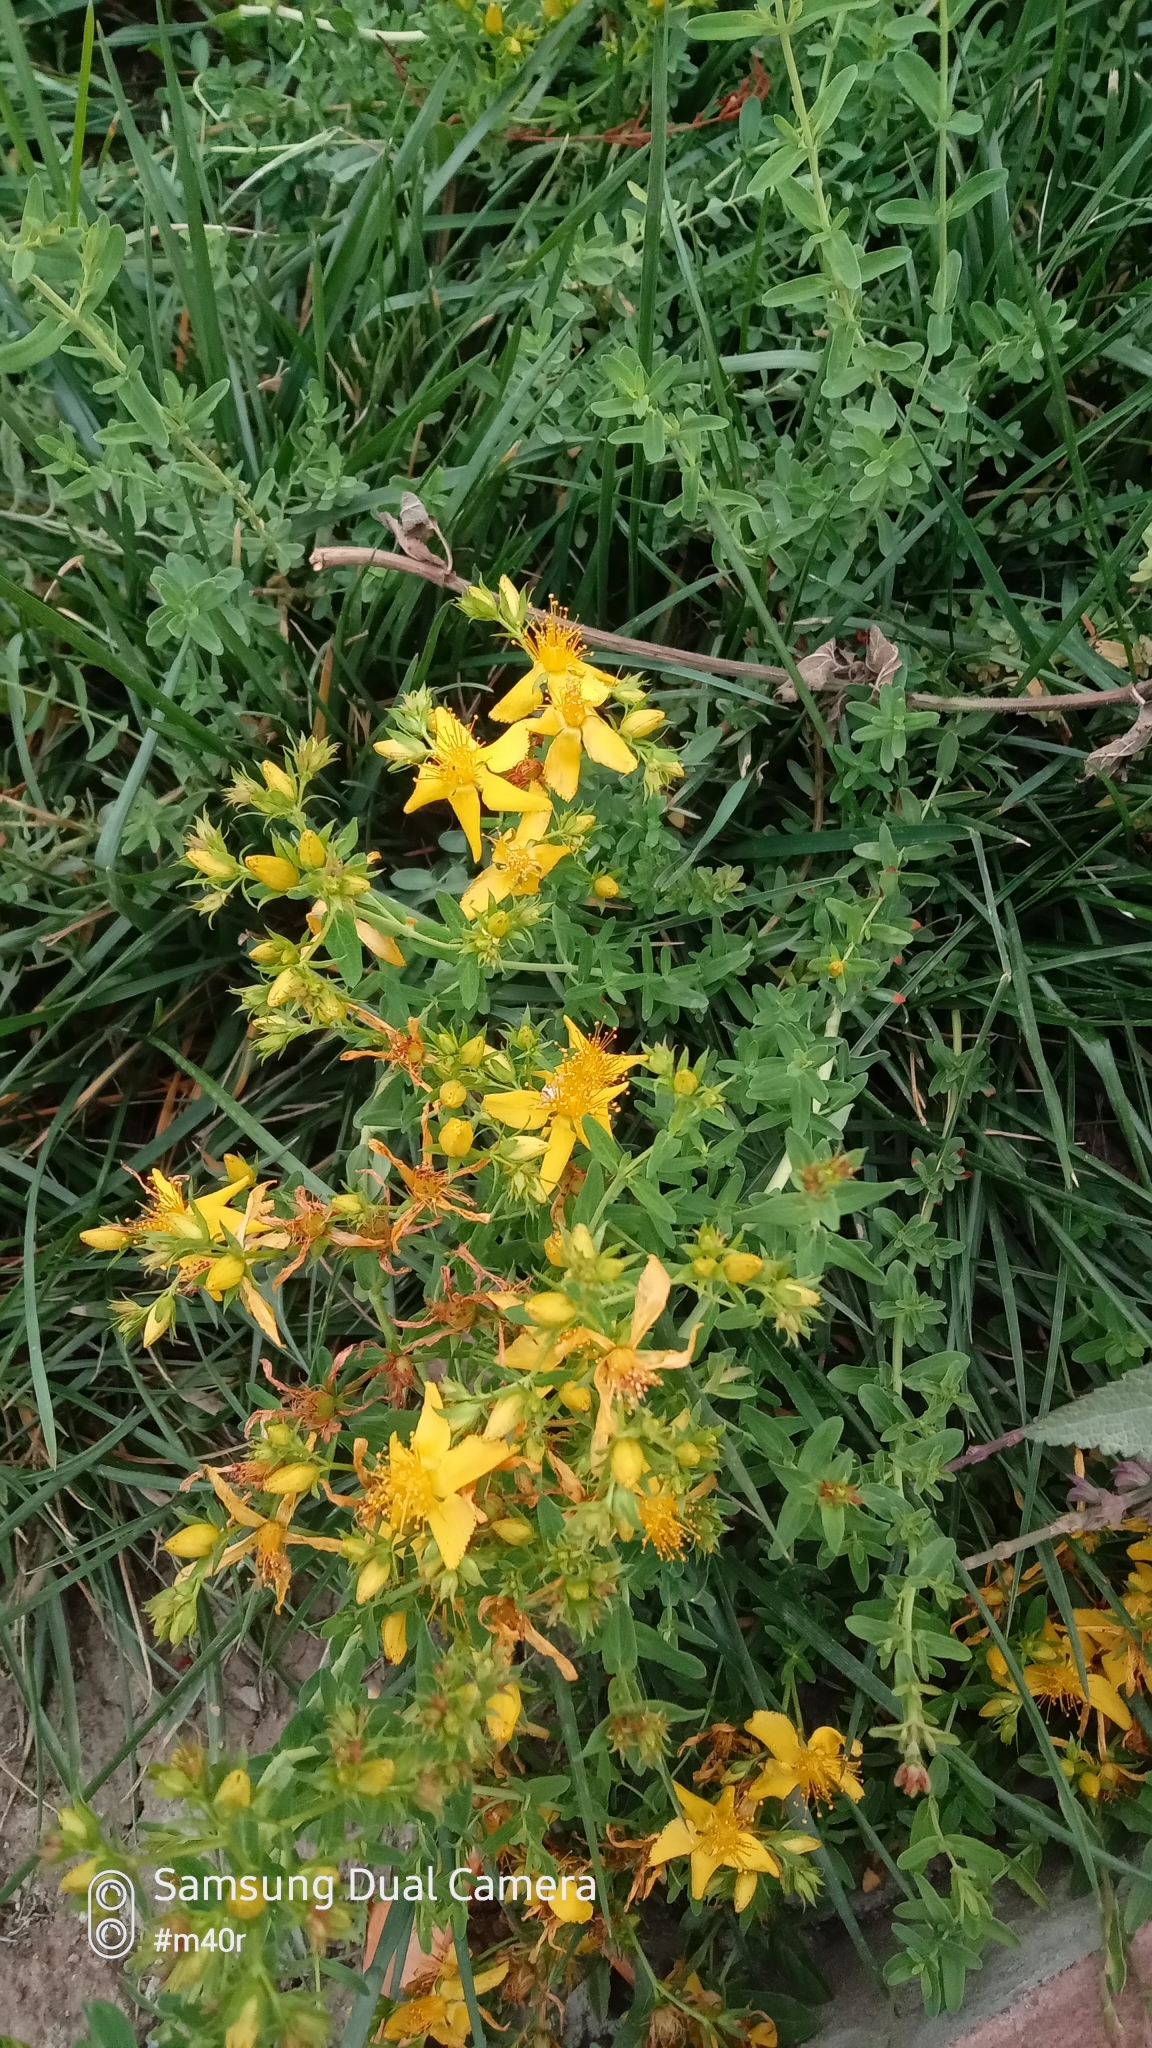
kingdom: Plantae
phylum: Tracheophyta
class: Magnoliopsida
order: Malpighiales
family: Hypericaceae
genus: Hypericum
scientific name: Hypericum perforatum
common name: Common st. johnswort
